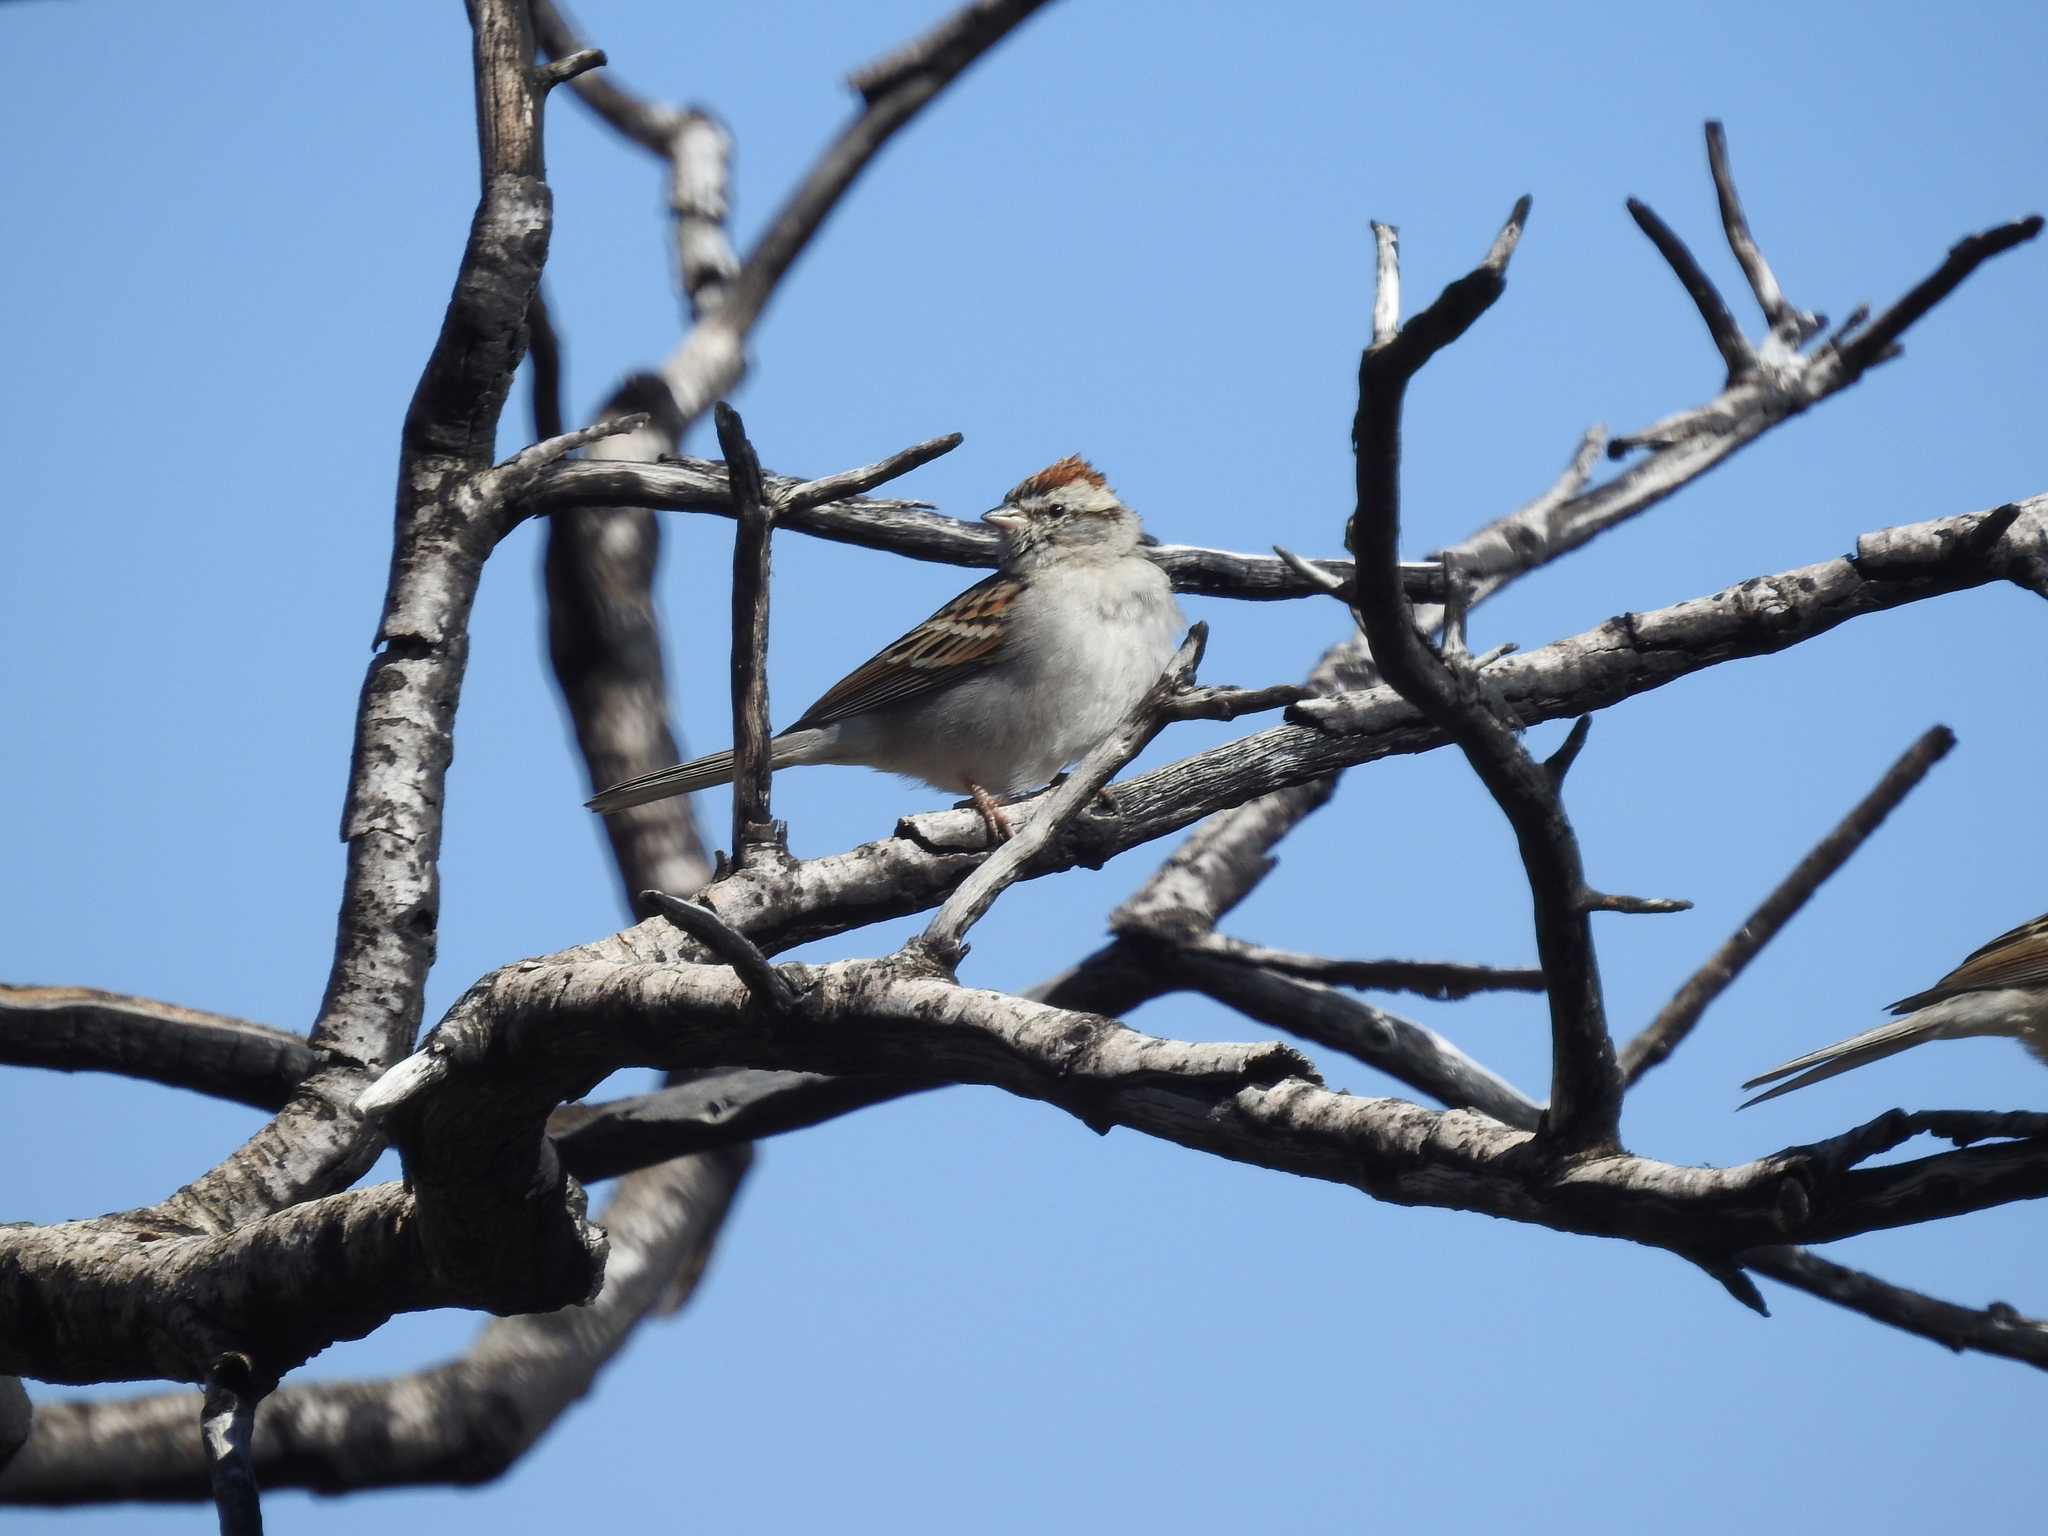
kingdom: Animalia
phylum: Chordata
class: Aves
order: Passeriformes
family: Passerellidae
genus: Spizella
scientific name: Spizella passerina
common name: Chipping sparrow
